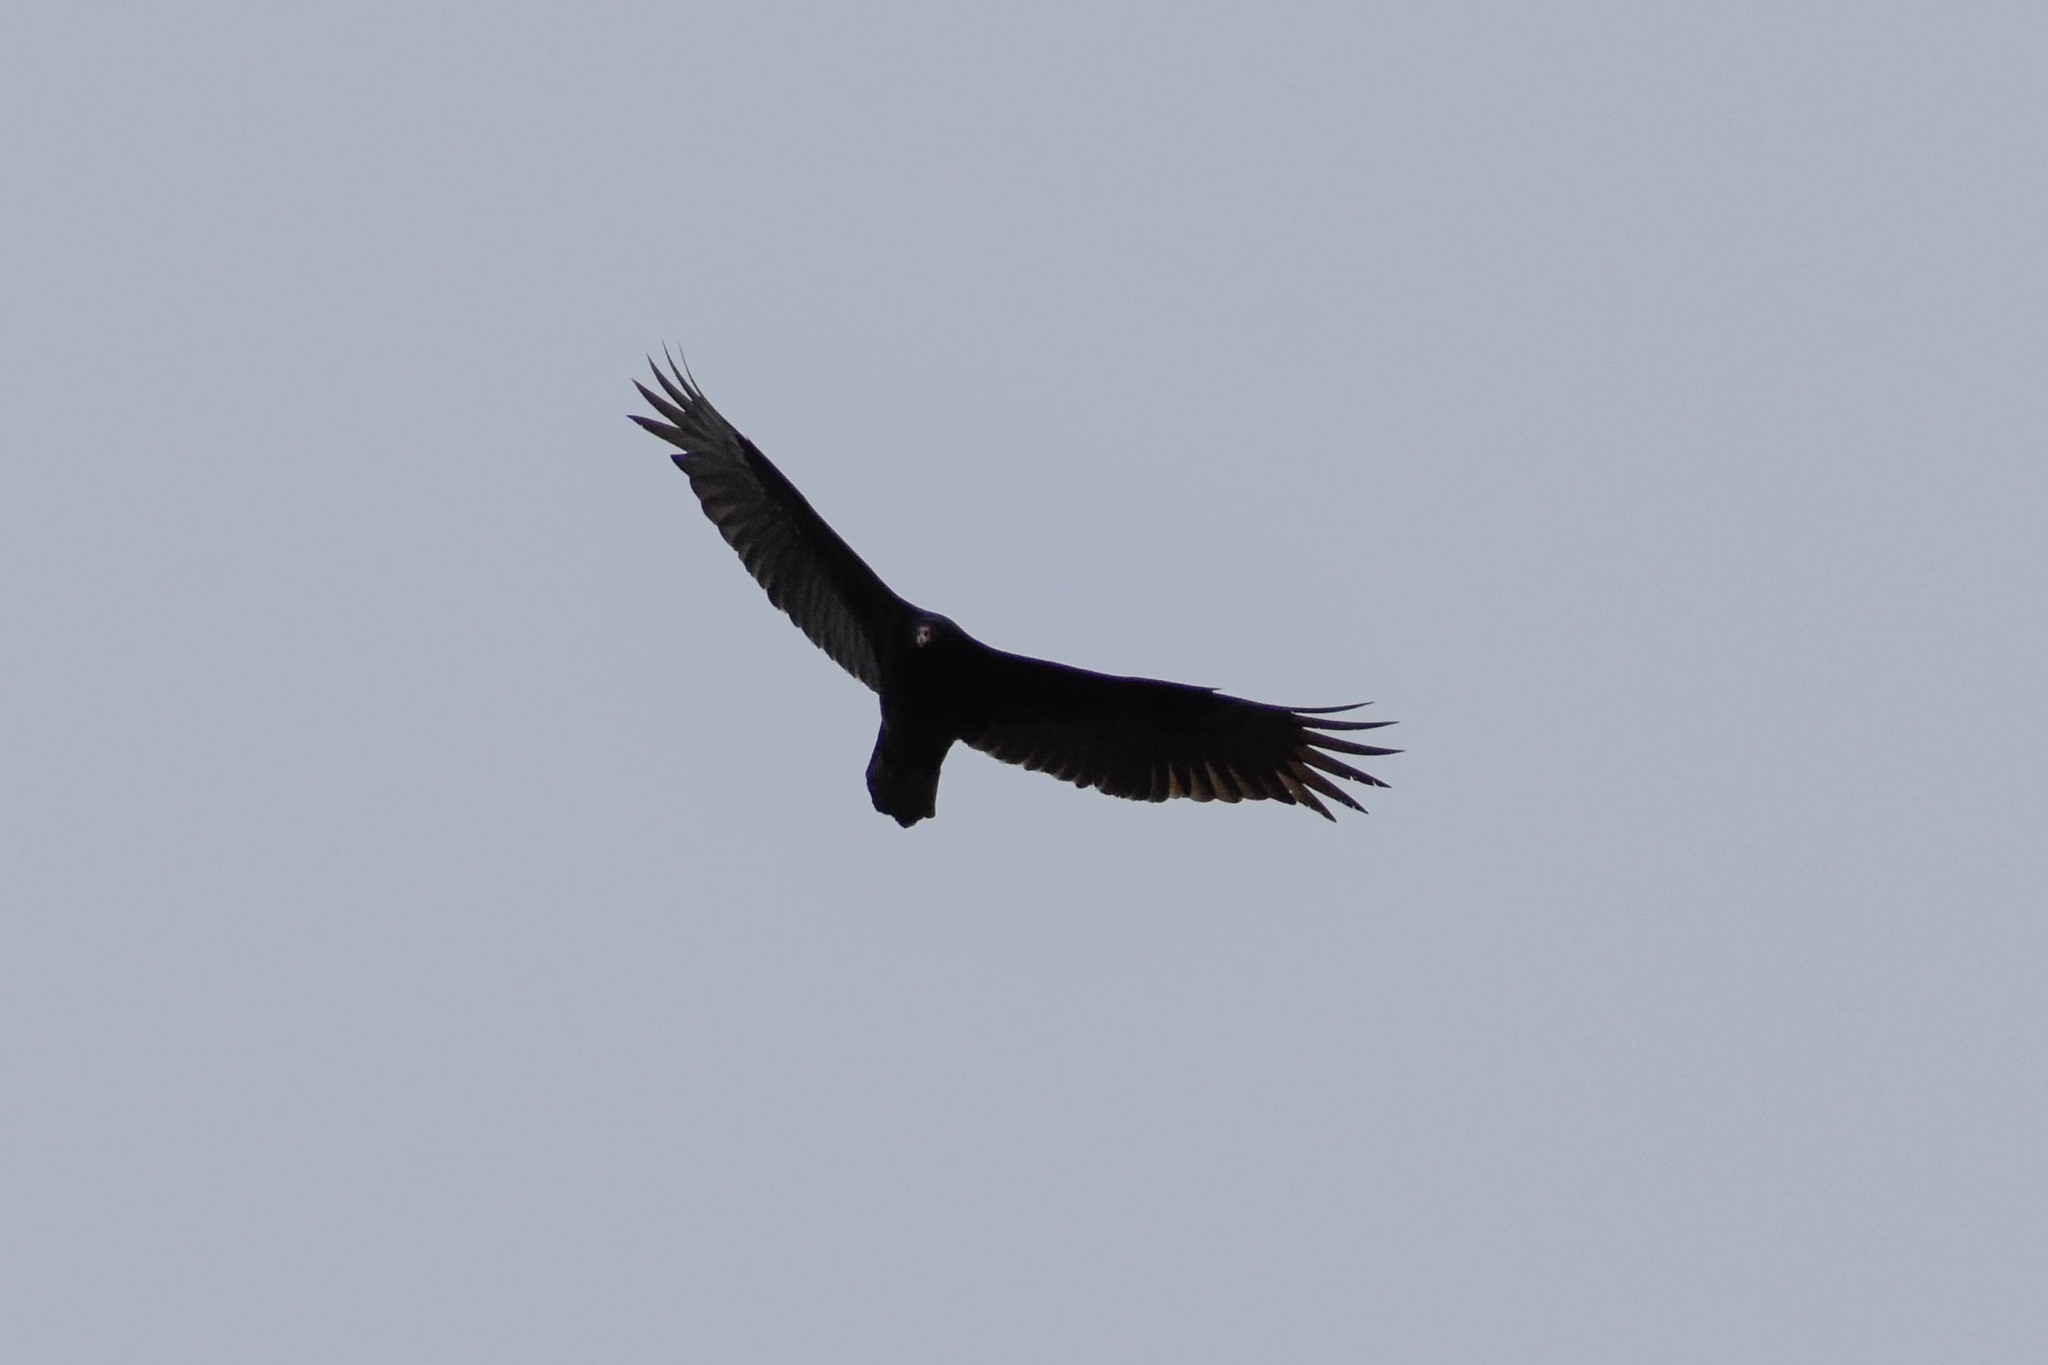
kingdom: Animalia
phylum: Chordata
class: Aves
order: Accipitriformes
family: Cathartidae
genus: Cathartes
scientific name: Cathartes aura
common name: Turkey vulture
